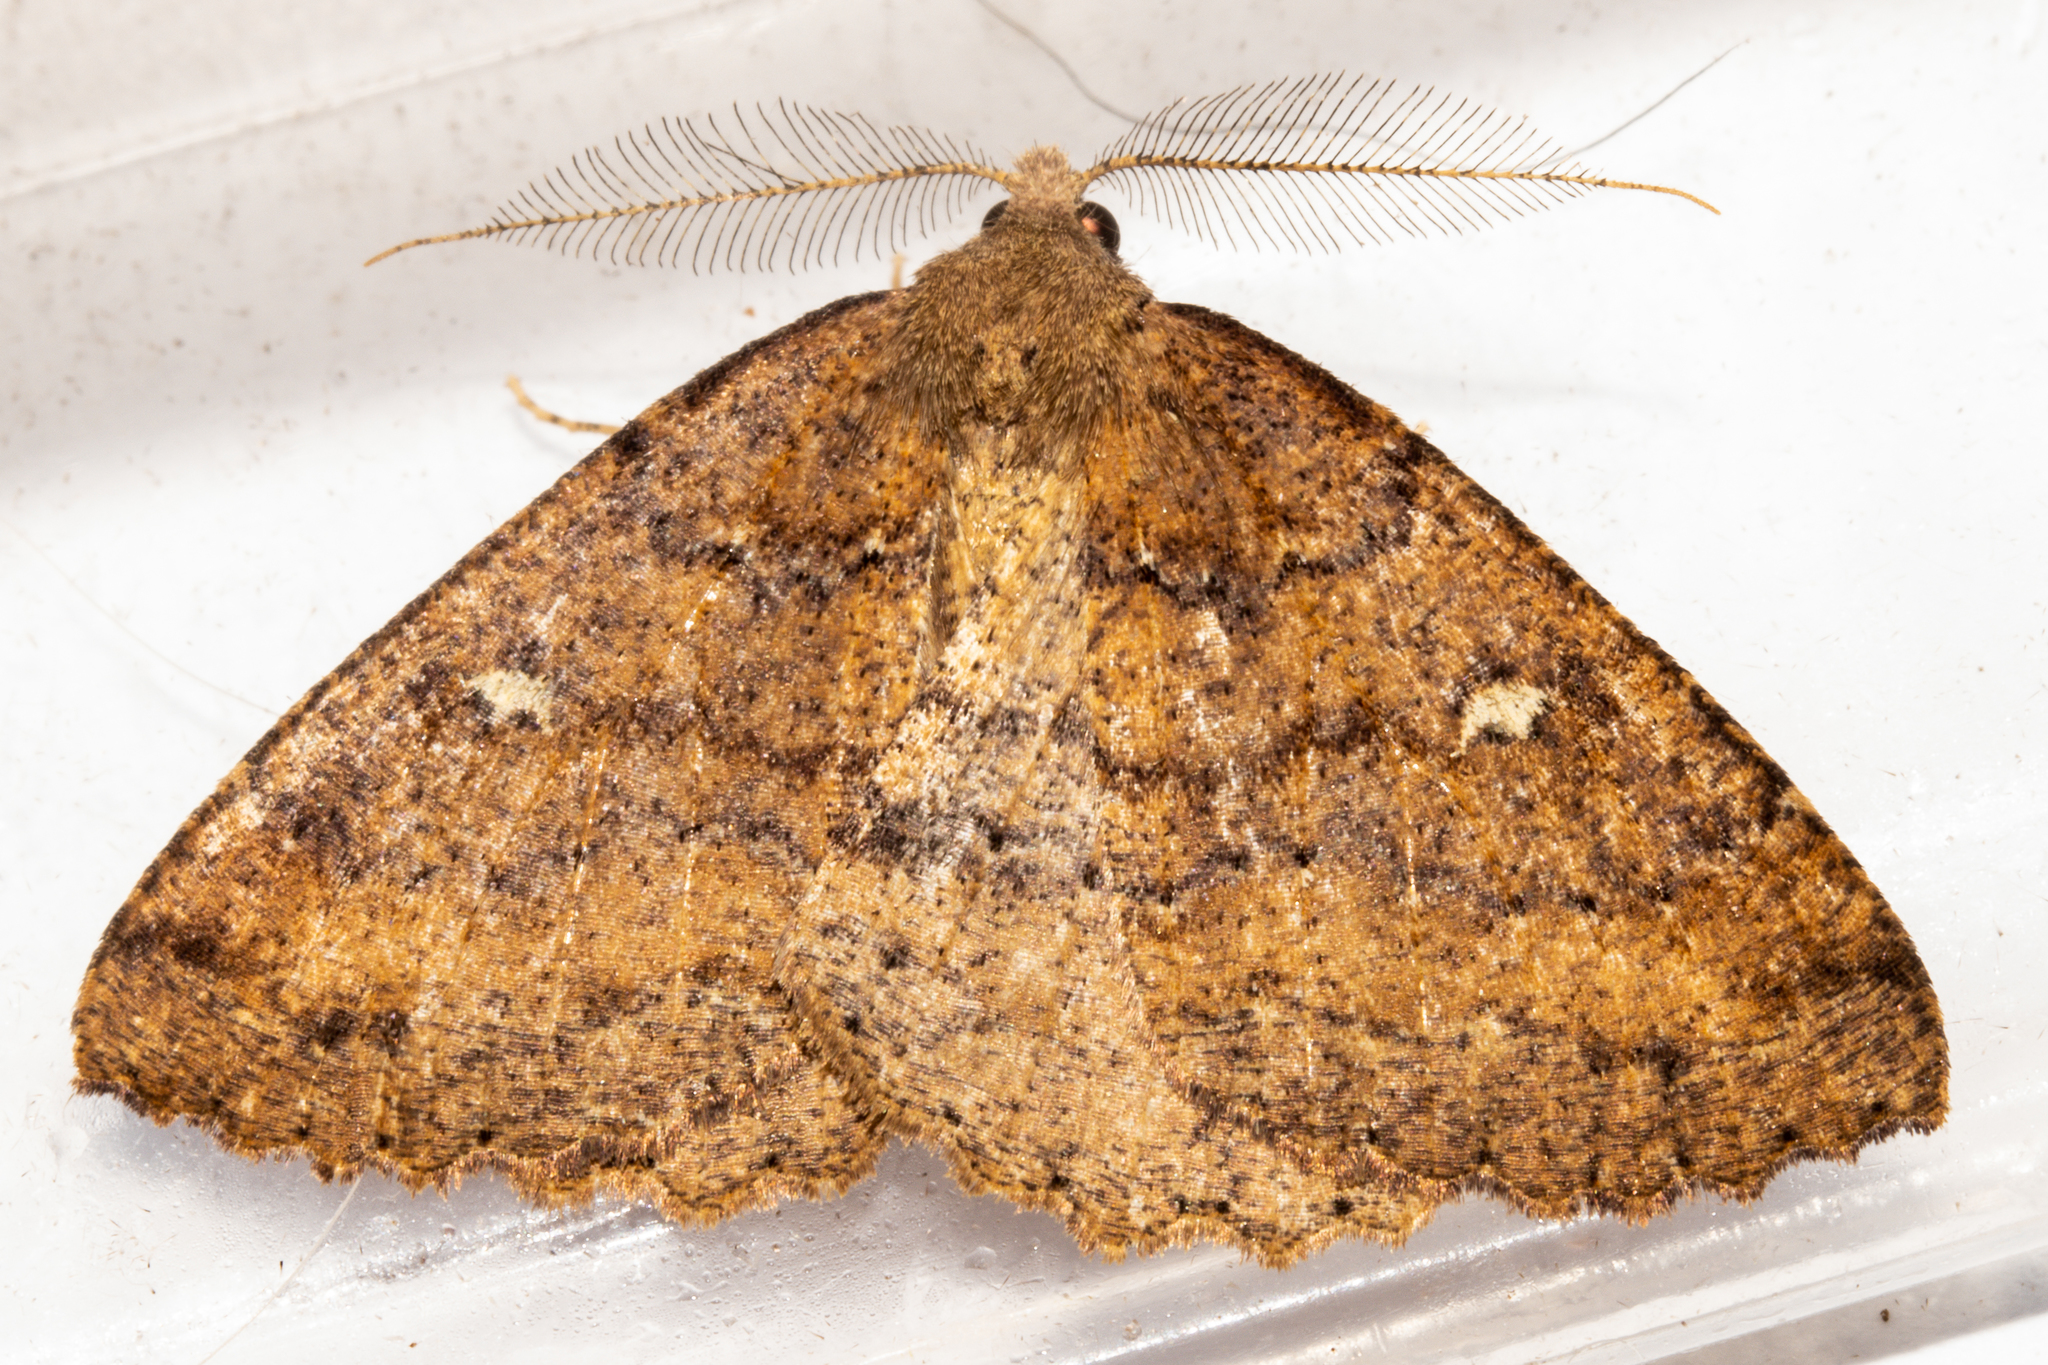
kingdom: Animalia
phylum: Arthropoda
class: Insecta
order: Lepidoptera
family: Geometridae
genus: Cleora
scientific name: Cleora scriptaria
